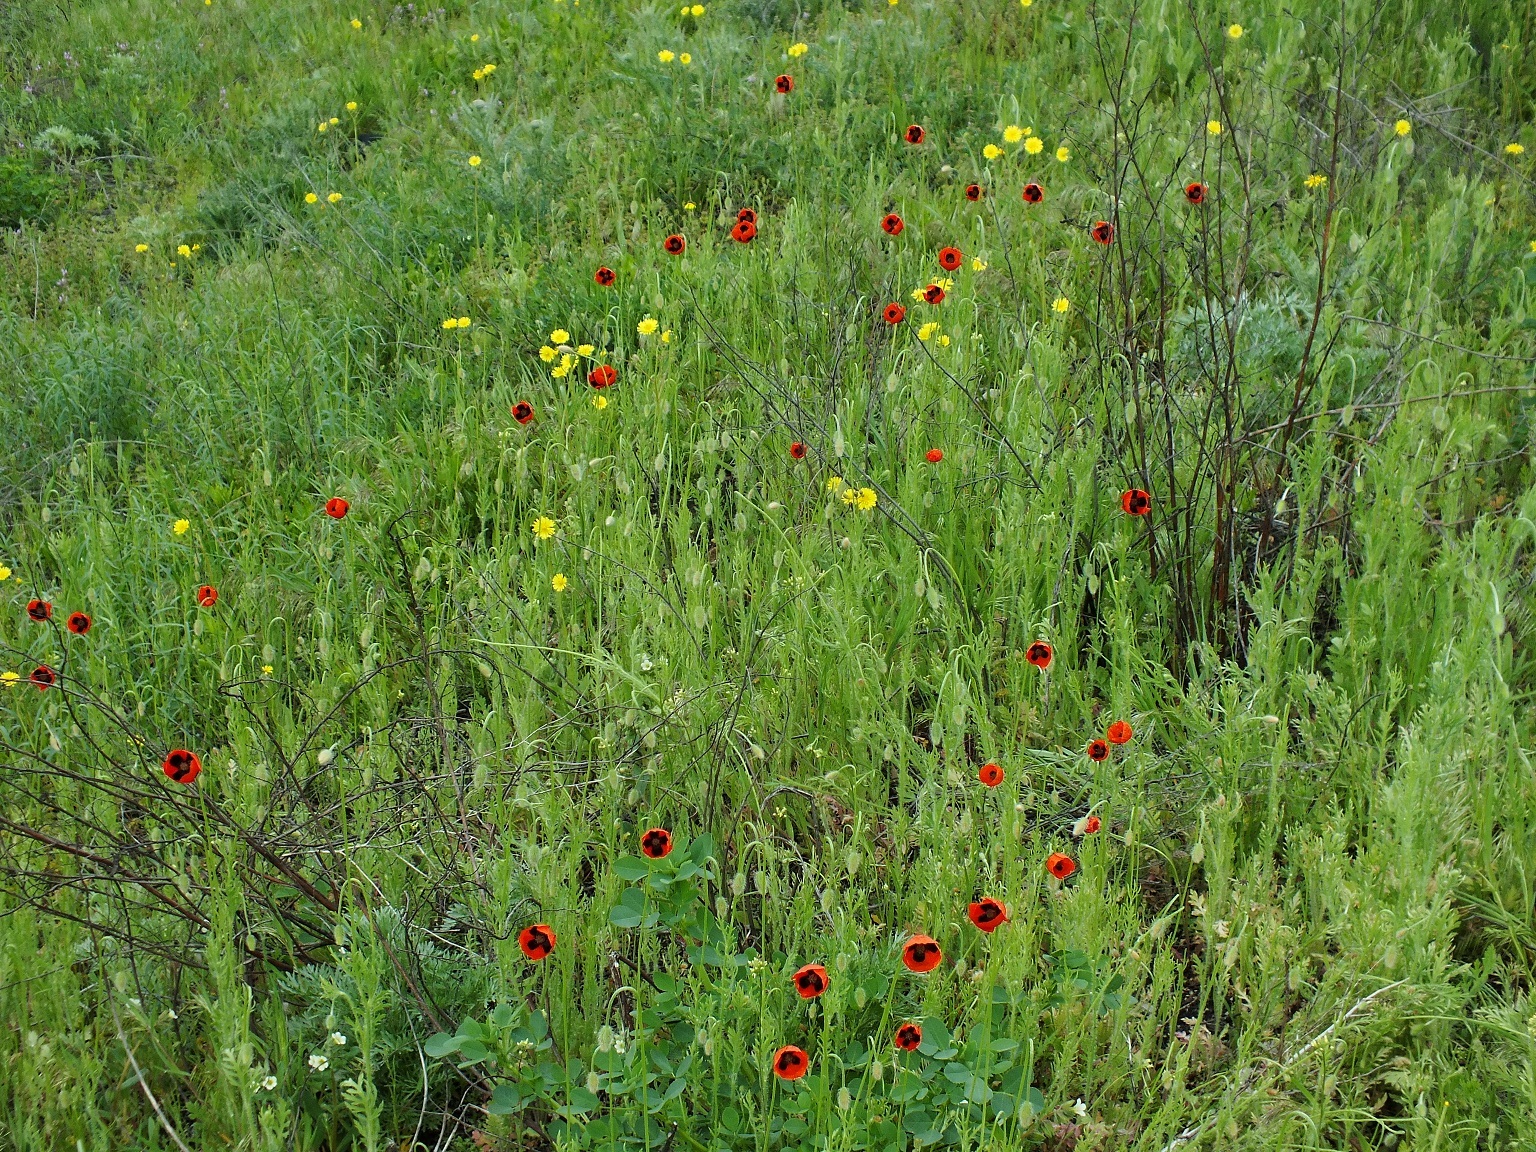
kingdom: Plantae
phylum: Tracheophyta
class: Magnoliopsida
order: Ranunculales
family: Papaveraceae
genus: Papaver
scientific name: Papaver dubium
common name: Long-headed poppy
